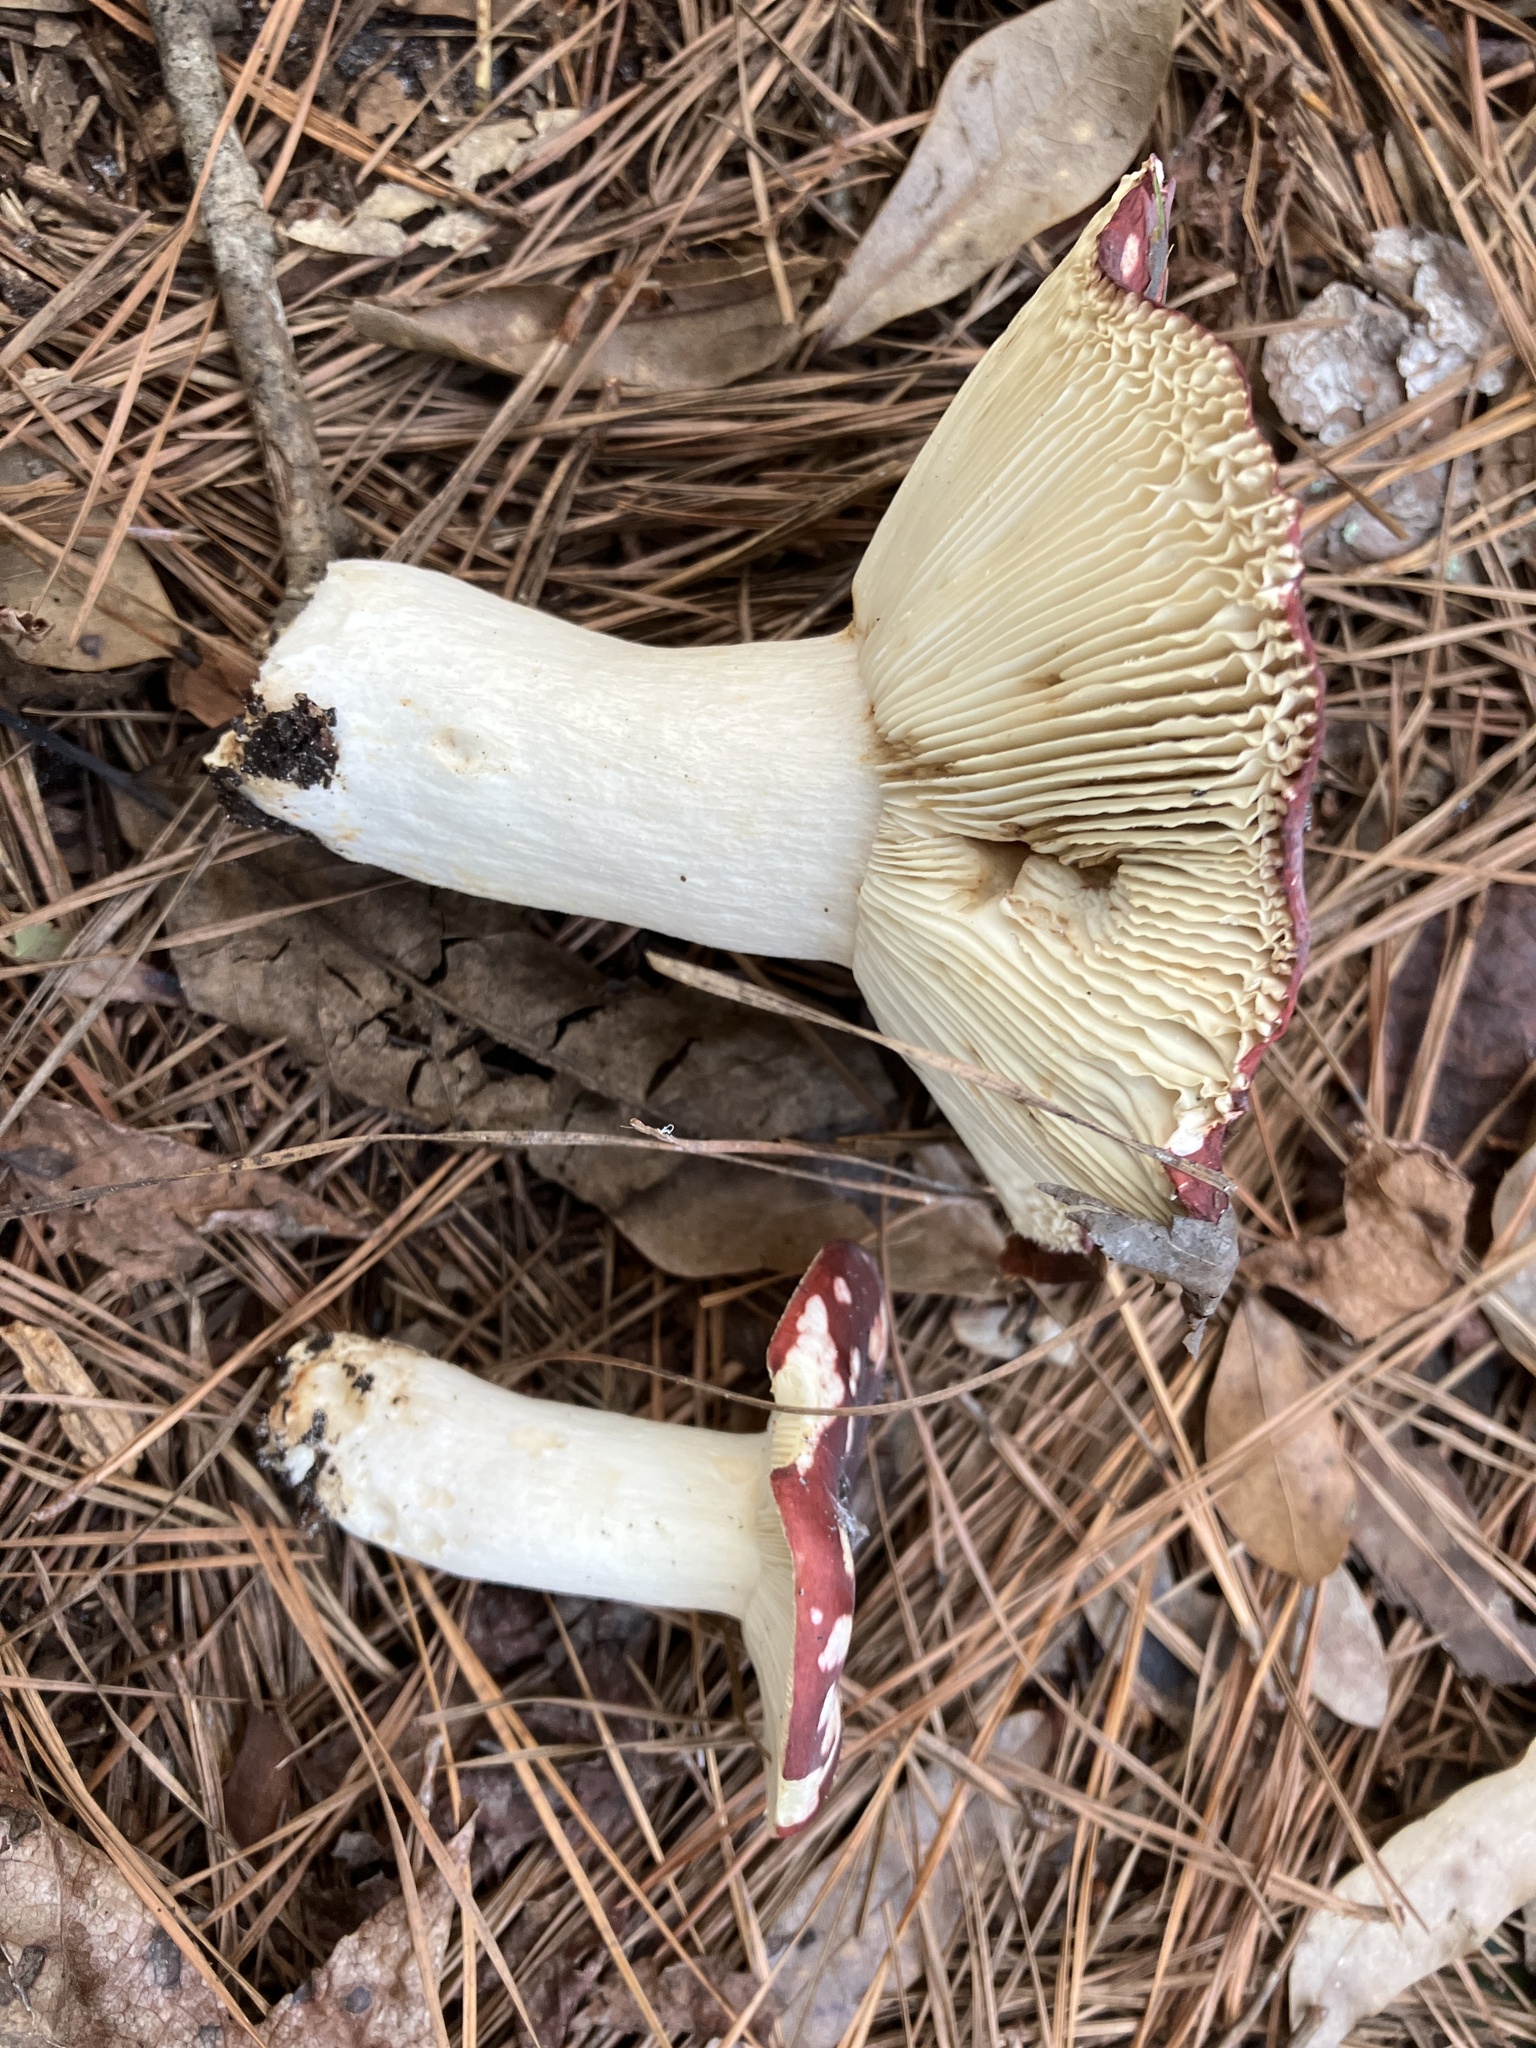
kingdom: Fungi
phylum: Basidiomycota
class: Agaricomycetes
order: Russulales
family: Russulaceae
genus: Russula
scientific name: Russula
